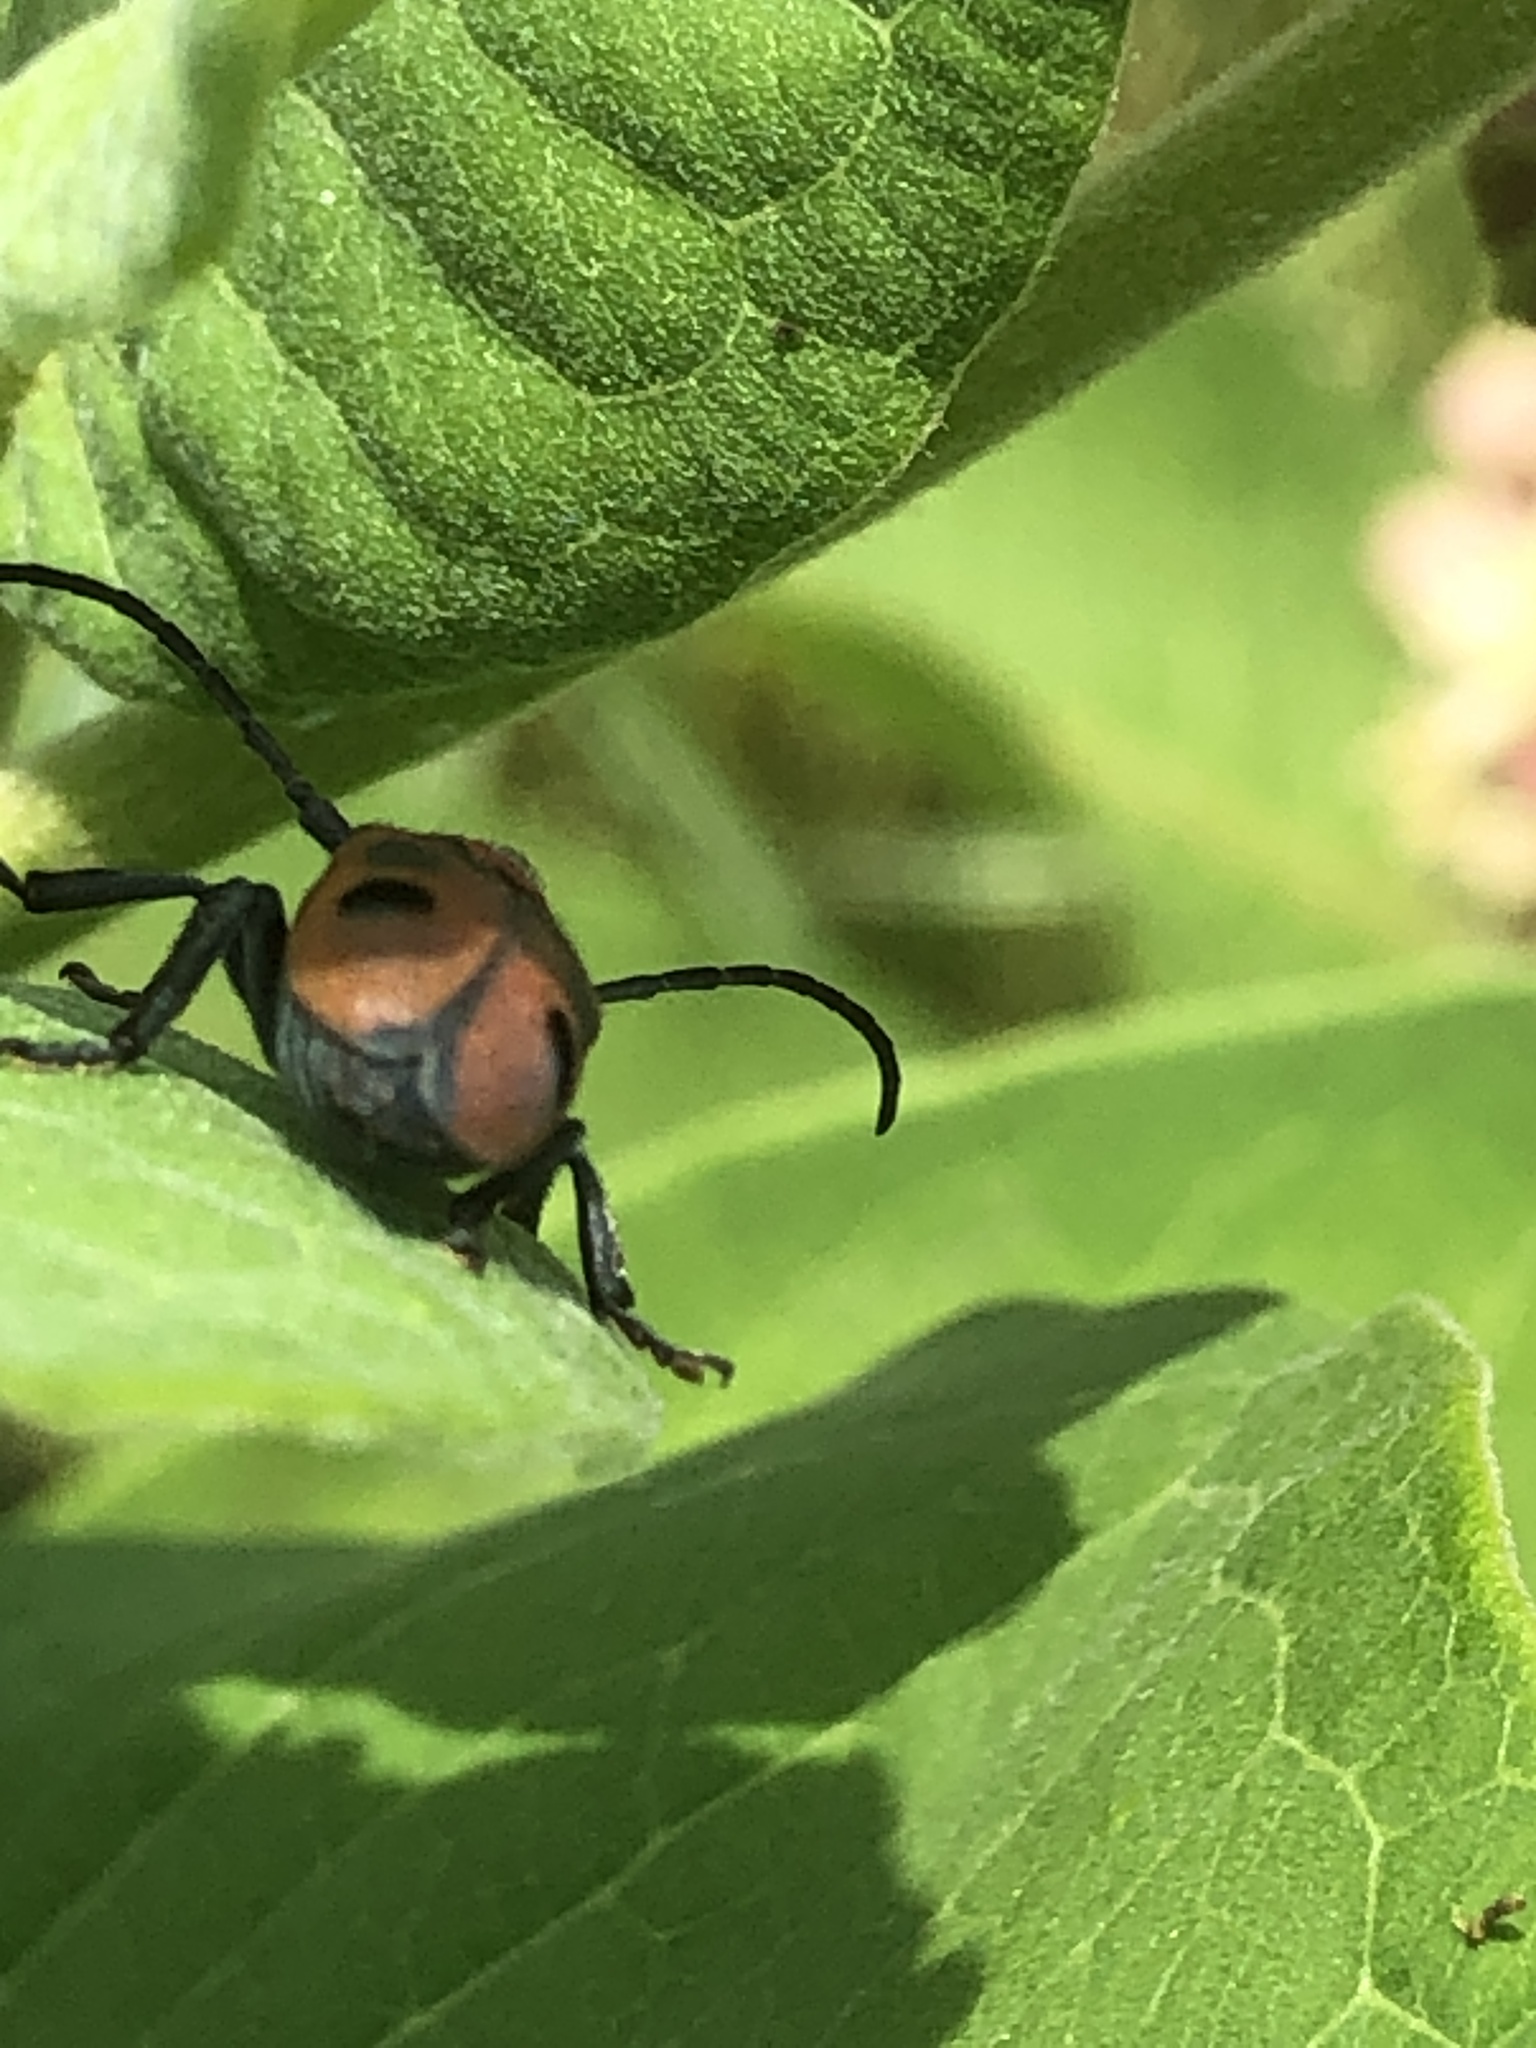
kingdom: Animalia
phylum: Arthropoda
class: Insecta
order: Coleoptera
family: Cerambycidae
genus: Tetraopes
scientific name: Tetraopes tetrophthalmus
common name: Red milkweed beetle
